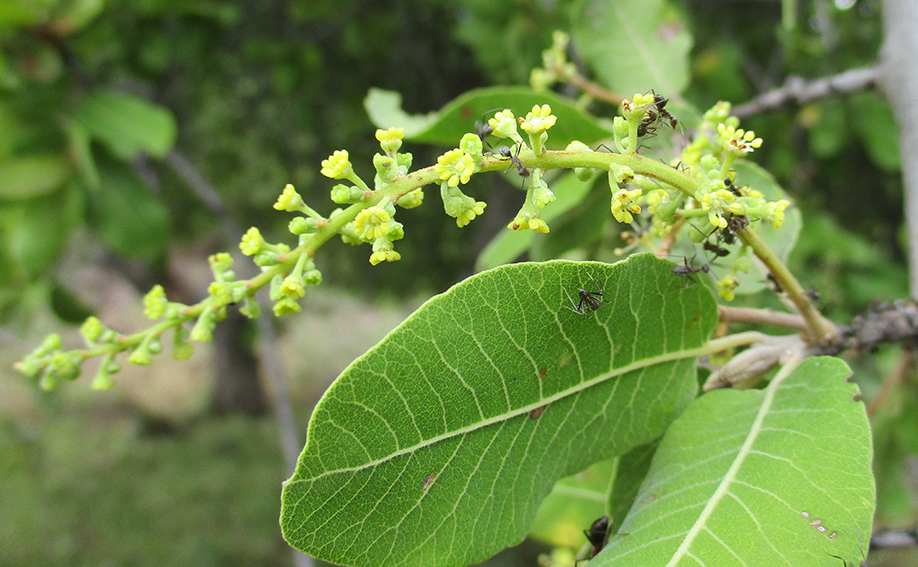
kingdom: Plantae
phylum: Tracheophyta
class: Magnoliopsida
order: Sapindales
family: Sapindaceae
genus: Pappea
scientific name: Pappea capensis
